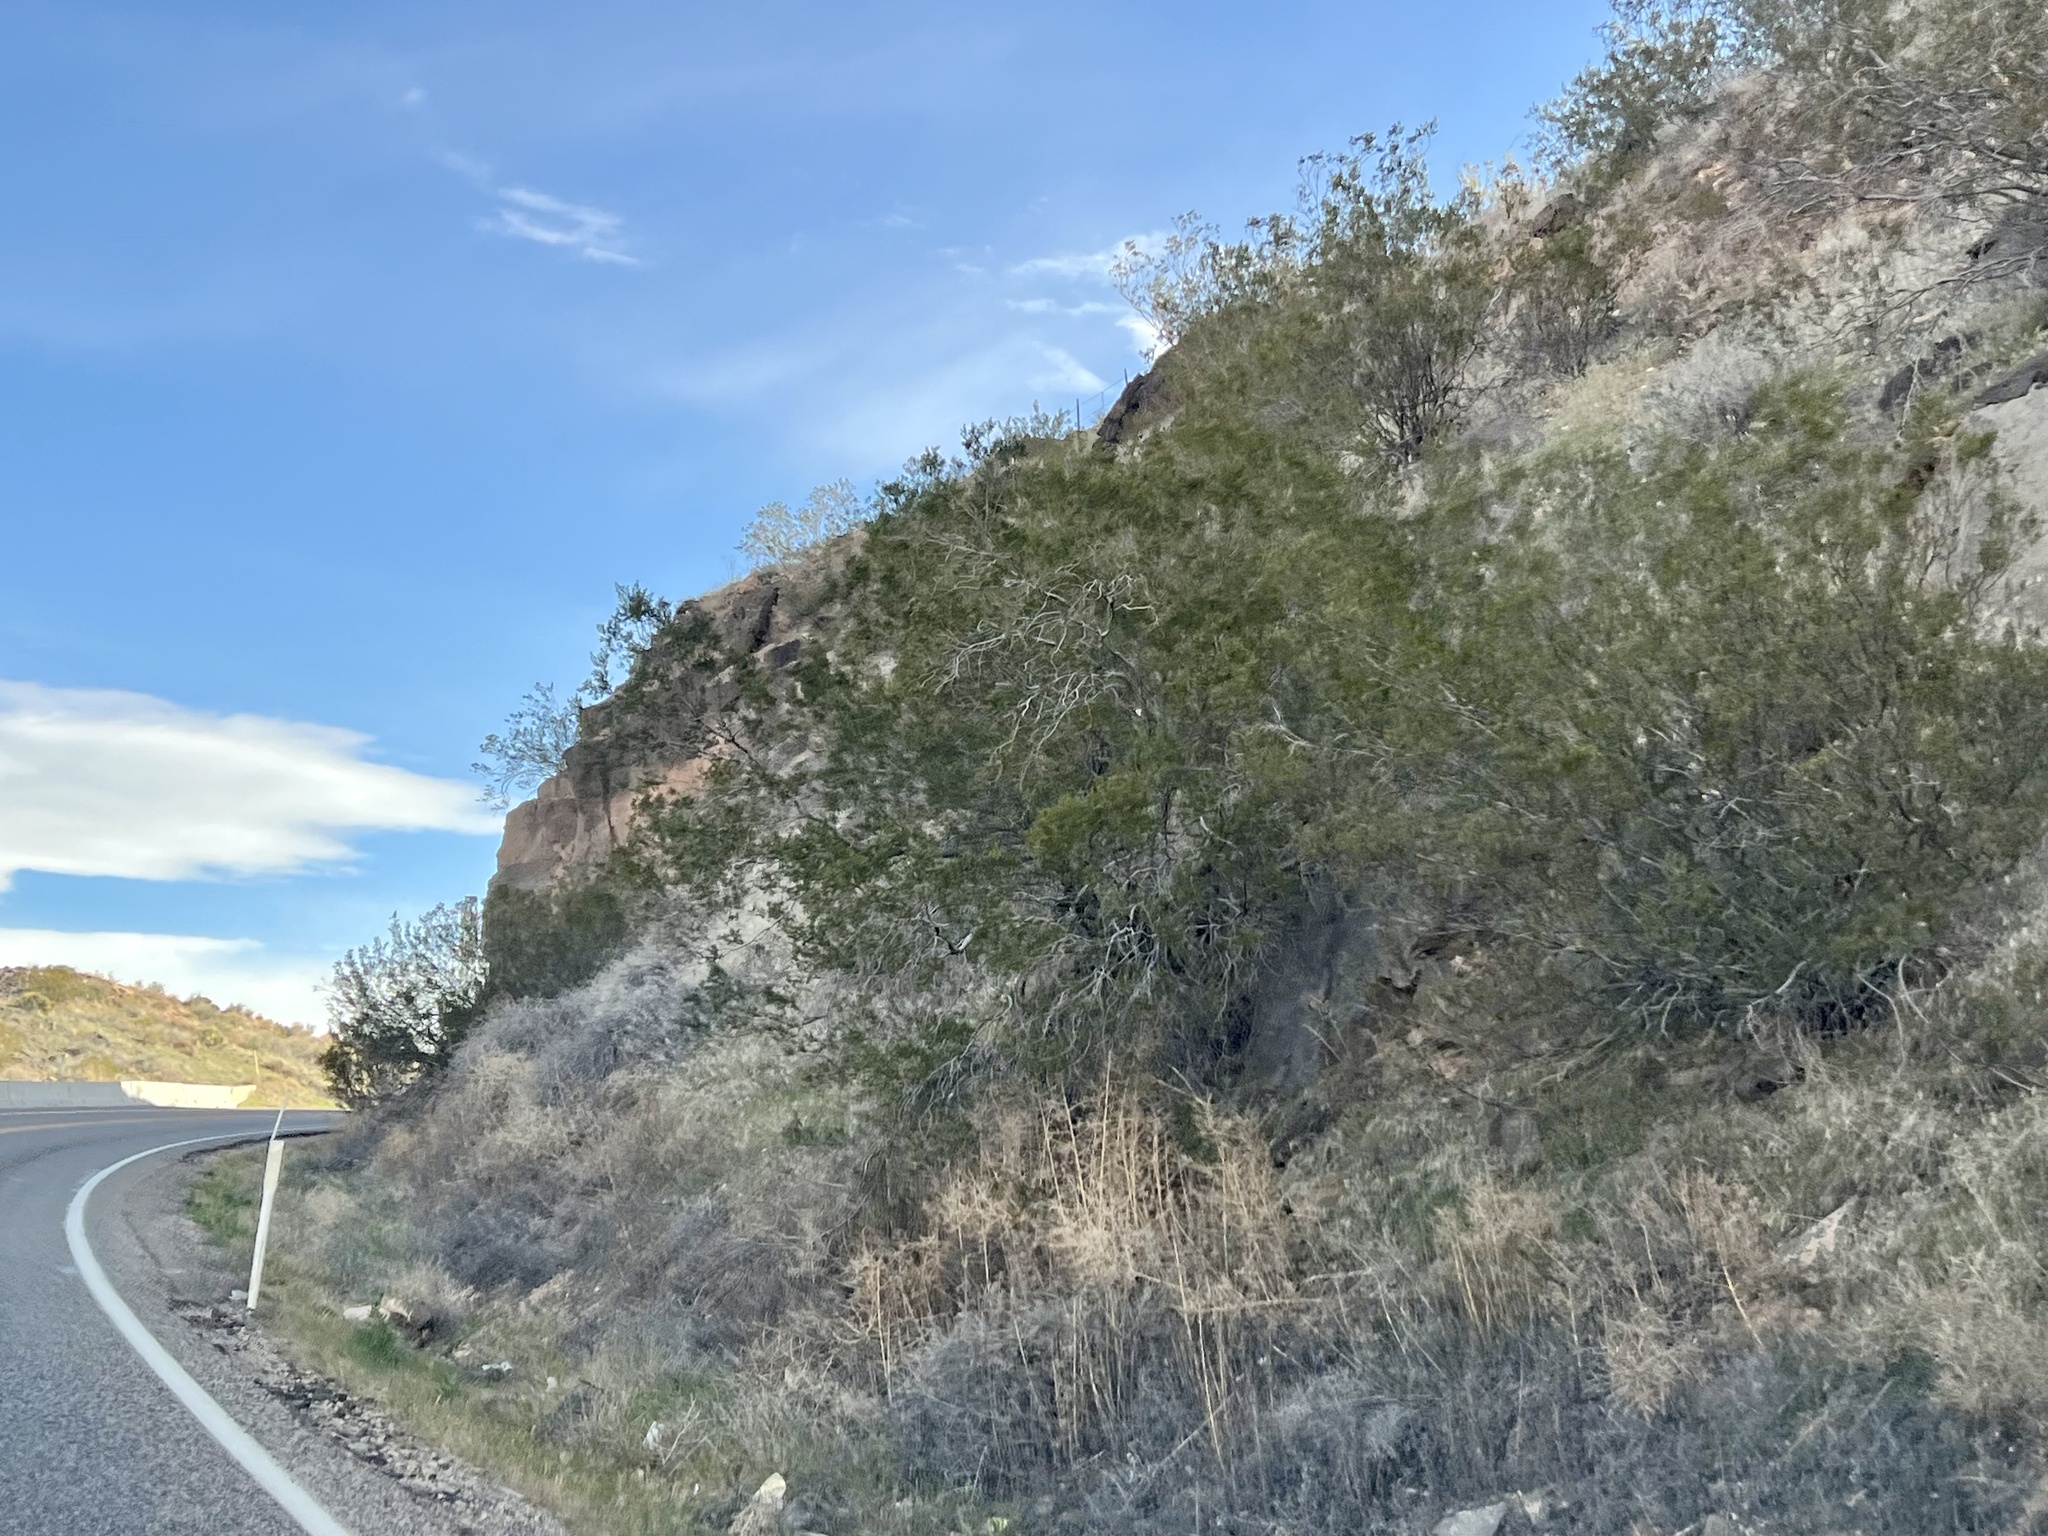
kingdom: Plantae
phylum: Tracheophyta
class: Magnoliopsida
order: Zygophyllales
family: Zygophyllaceae
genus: Larrea
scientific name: Larrea tridentata
